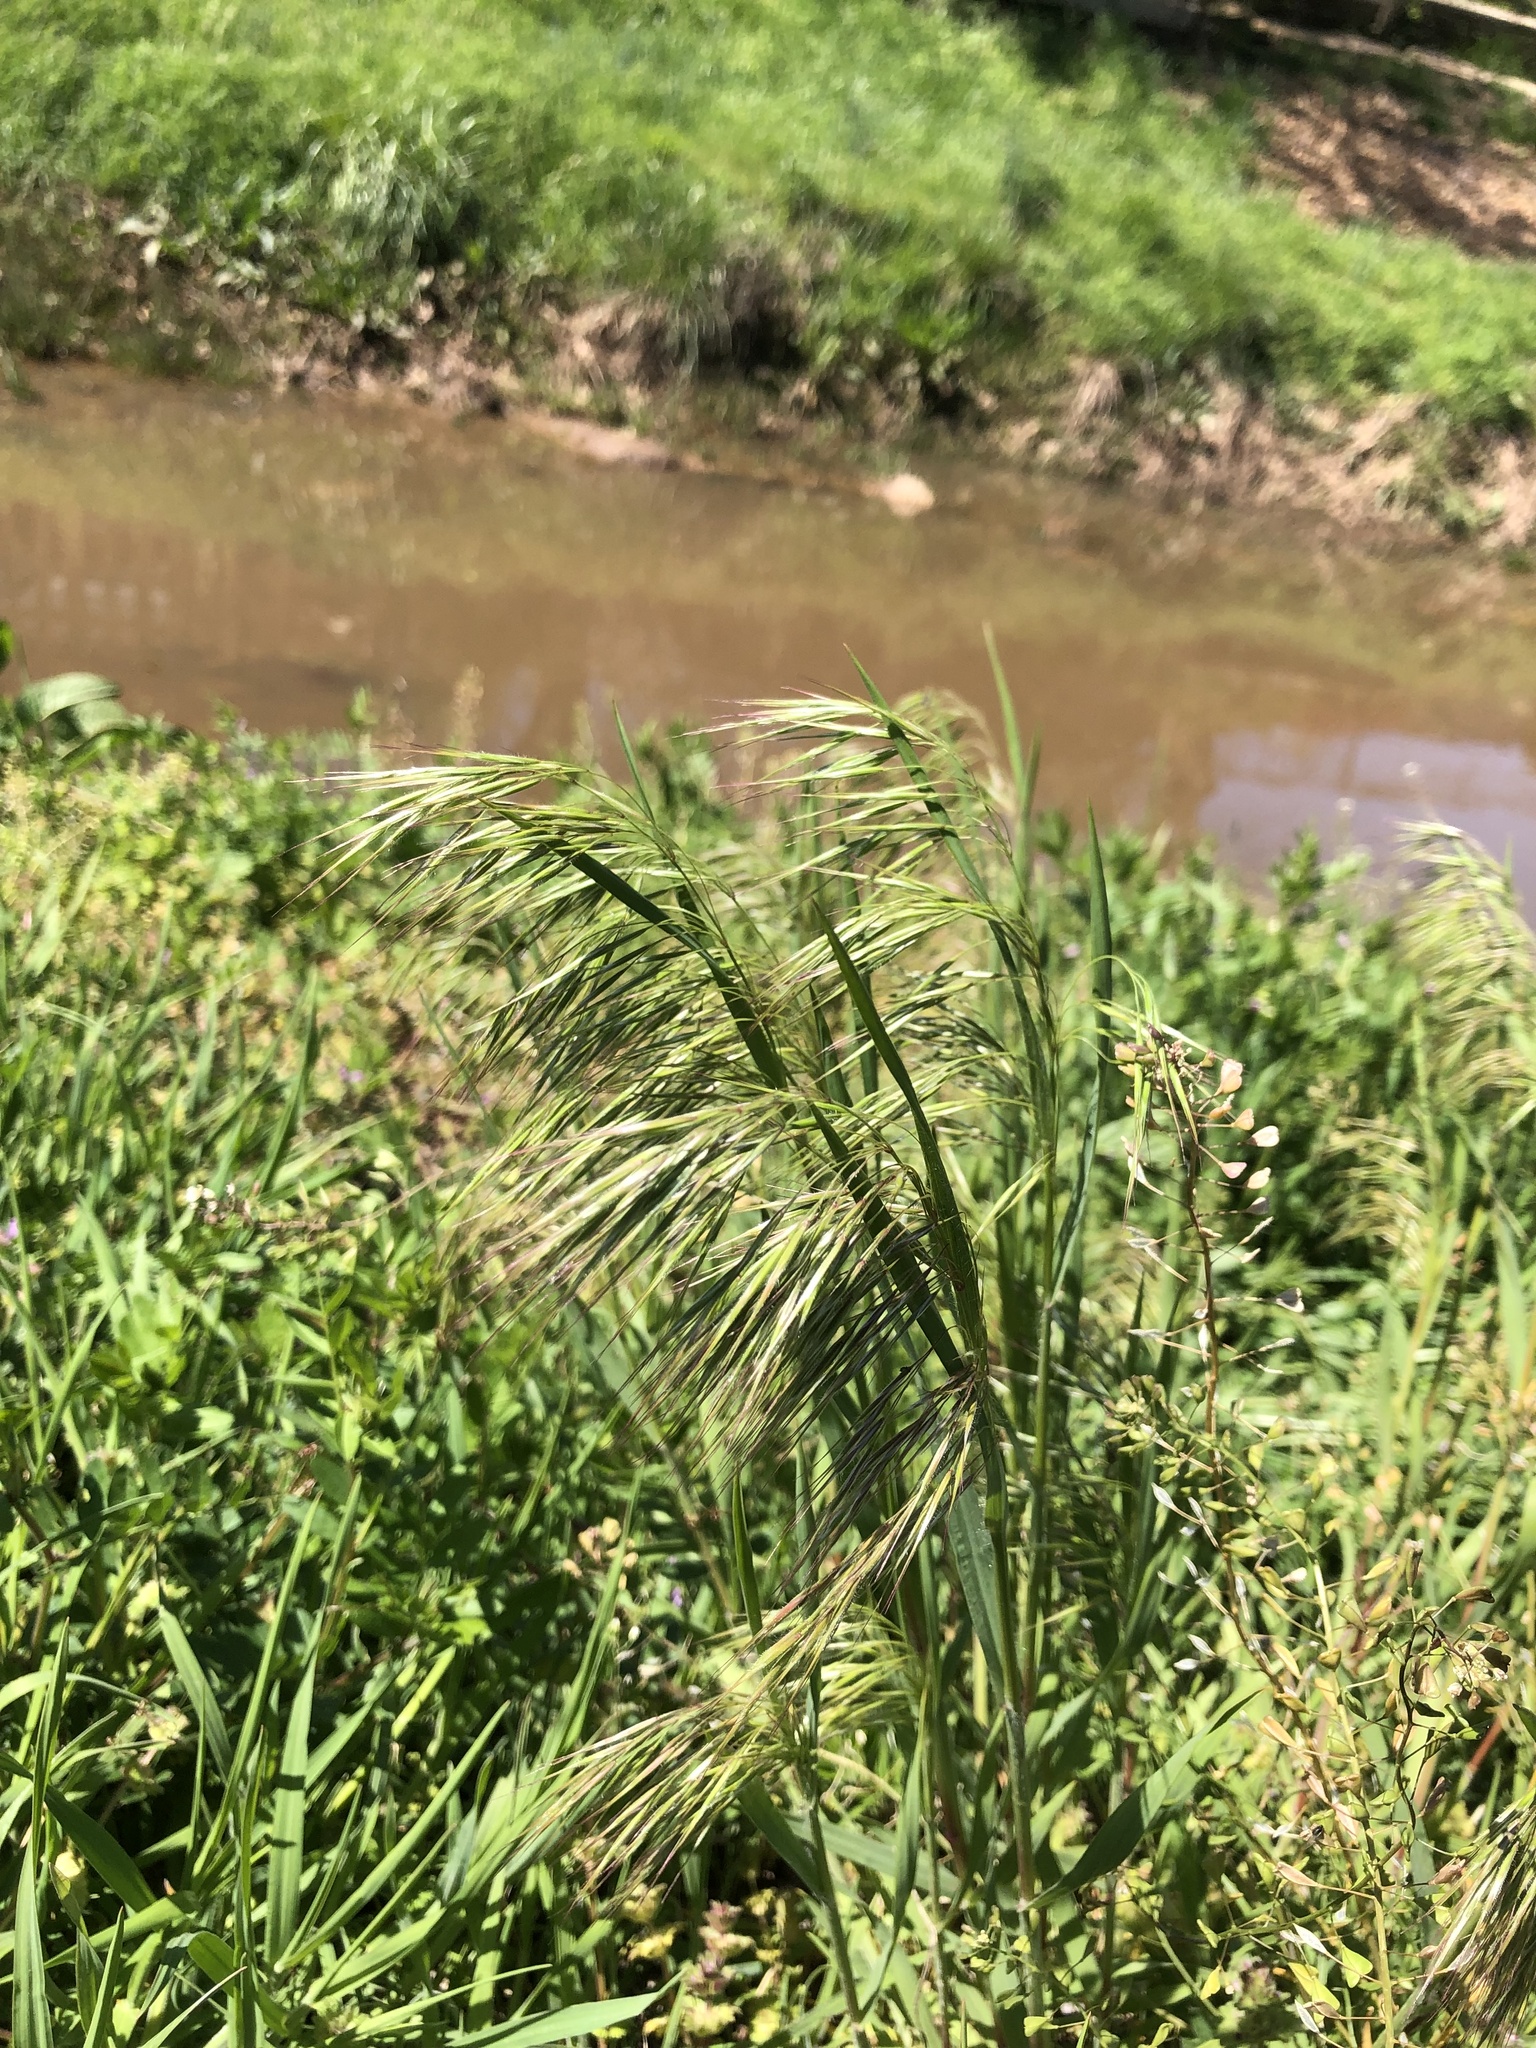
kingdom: Plantae
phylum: Tracheophyta
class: Liliopsida
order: Poales
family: Poaceae
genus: Bromus
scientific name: Bromus tectorum
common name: Cheatgrass
